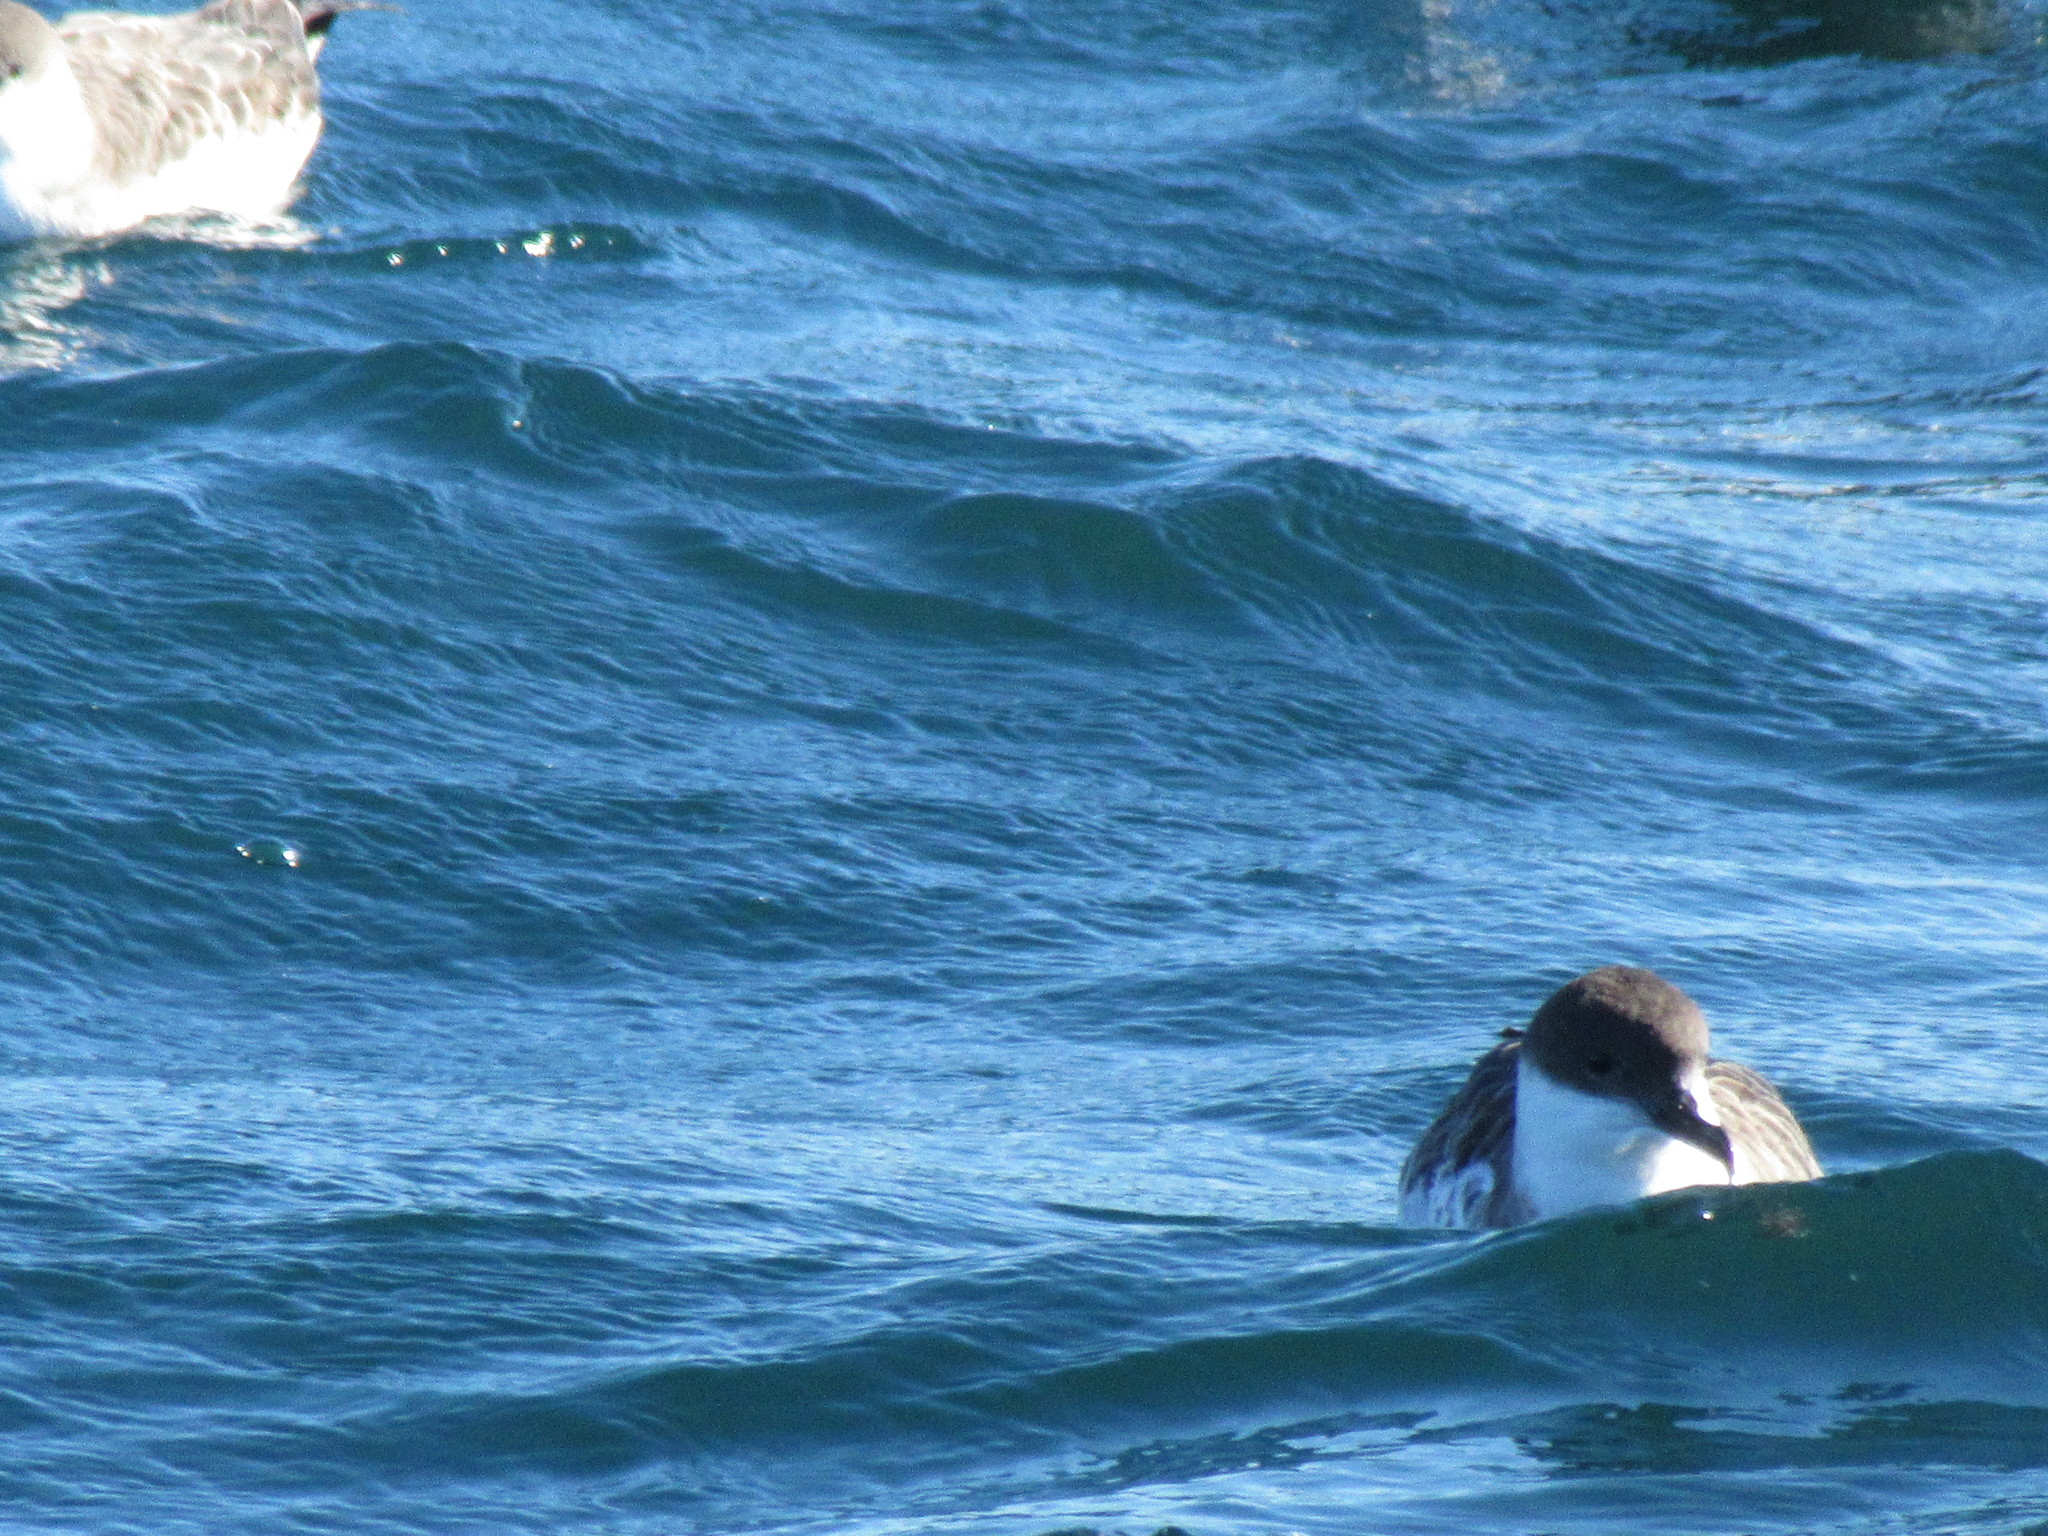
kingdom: Animalia
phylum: Chordata
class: Aves
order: Procellariiformes
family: Procellariidae
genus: Puffinus
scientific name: Puffinus gravis
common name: Great shearwater
